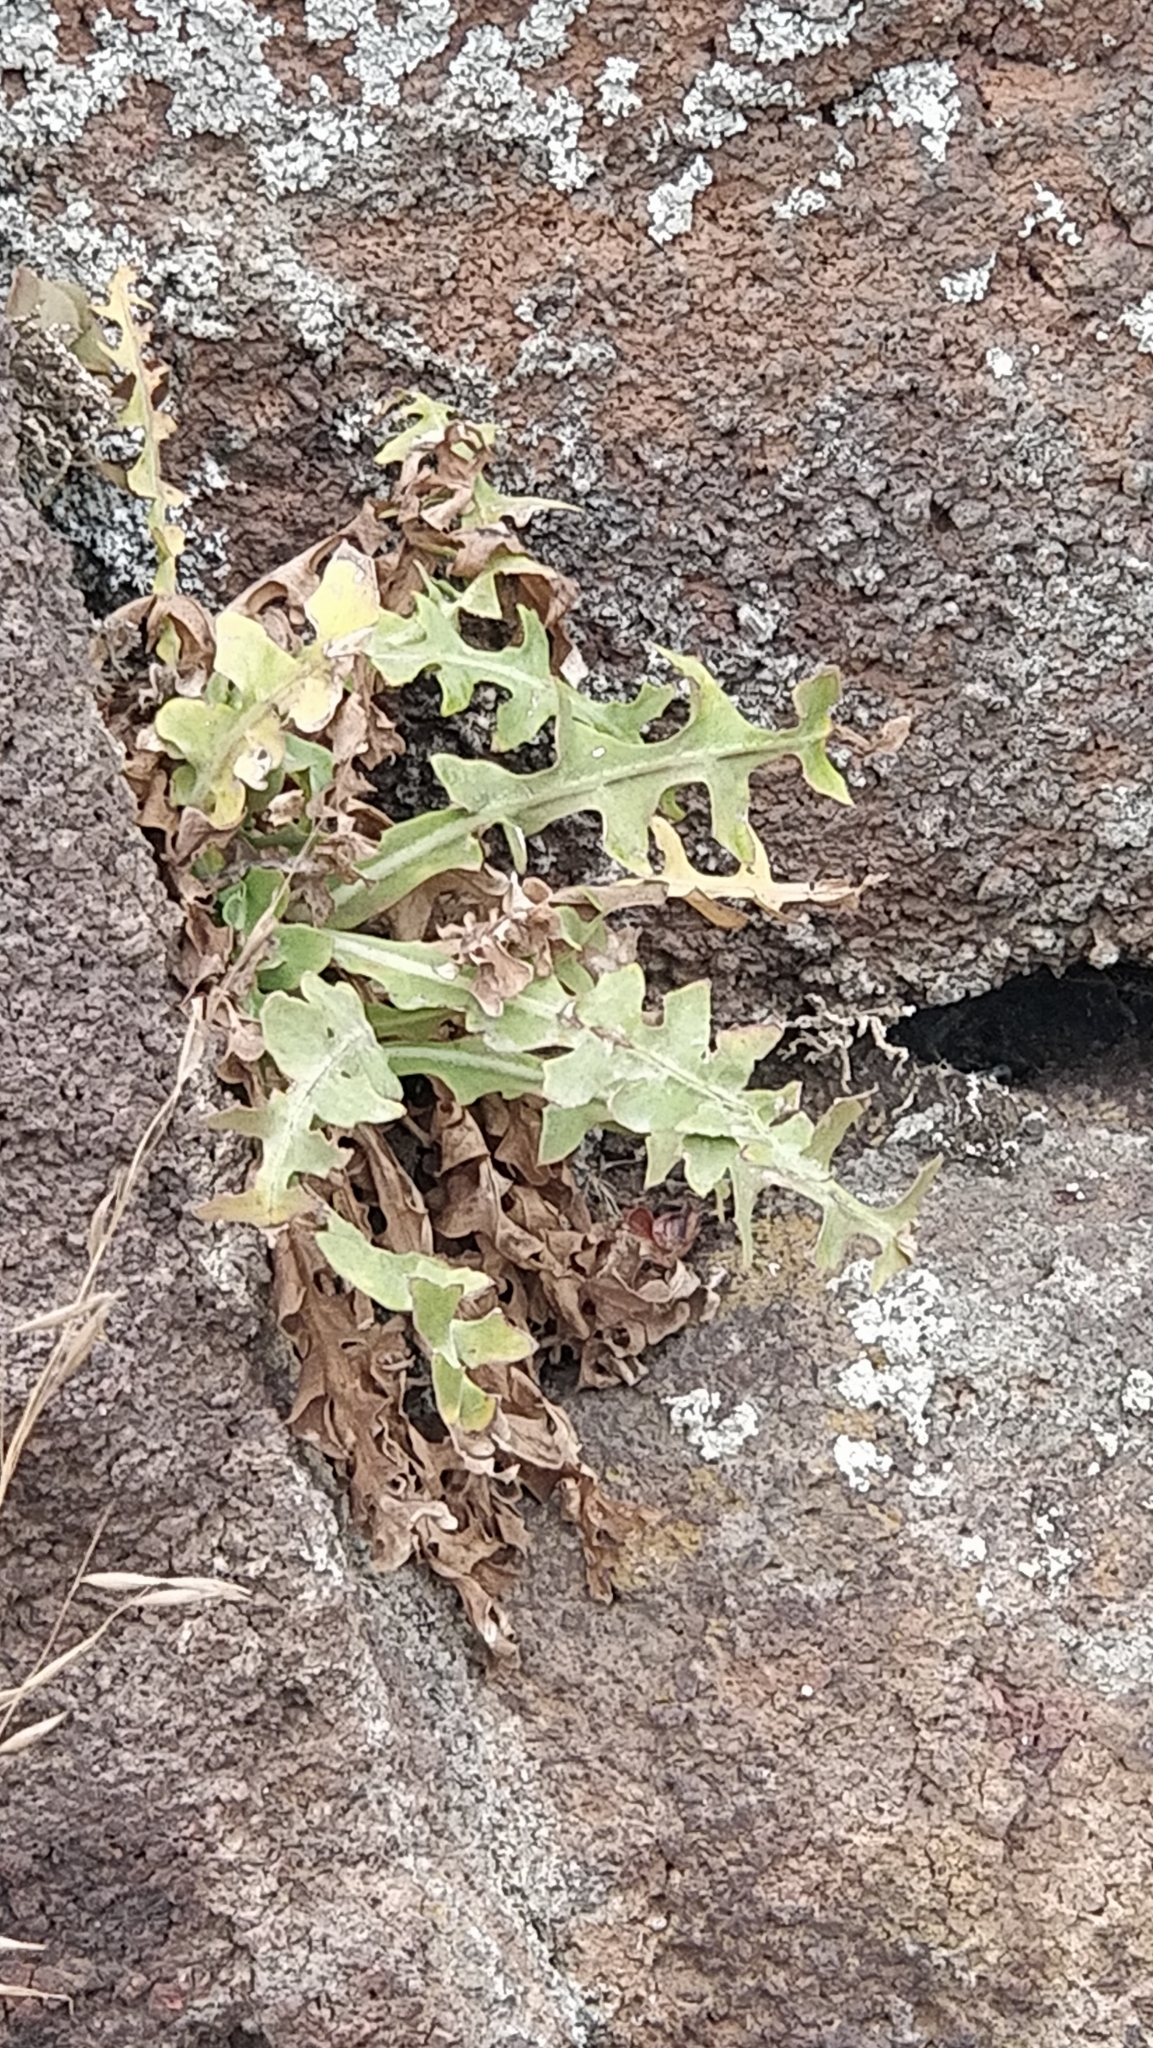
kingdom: Plantae
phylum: Tracheophyta
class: Magnoliopsida
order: Asterales
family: Asteraceae
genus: Sonchus
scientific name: Sonchus ustulatus
